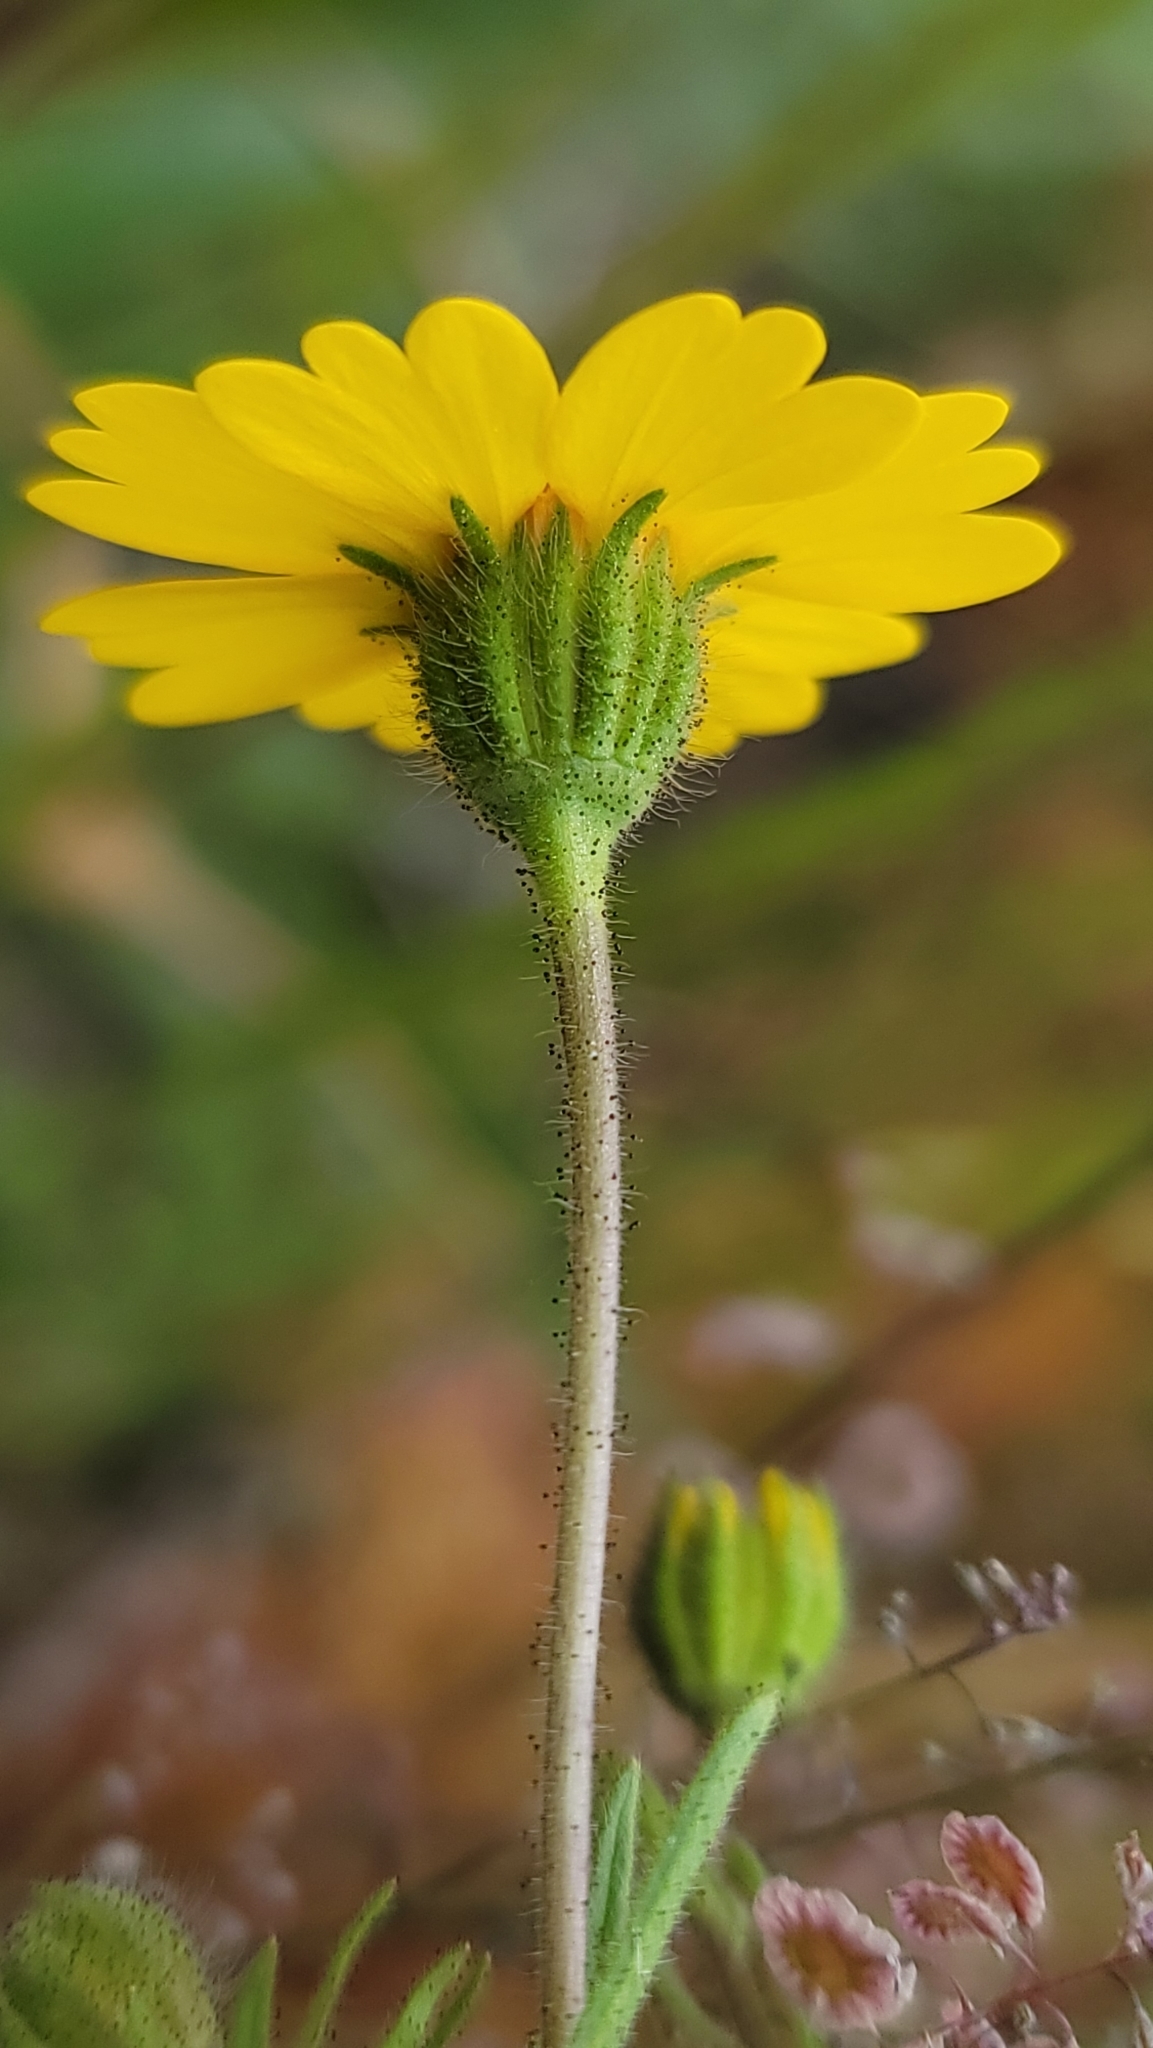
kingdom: Plantae
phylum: Tracheophyta
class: Magnoliopsida
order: Asterales
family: Asteraceae
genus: Layia
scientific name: Layia pentachaeta
